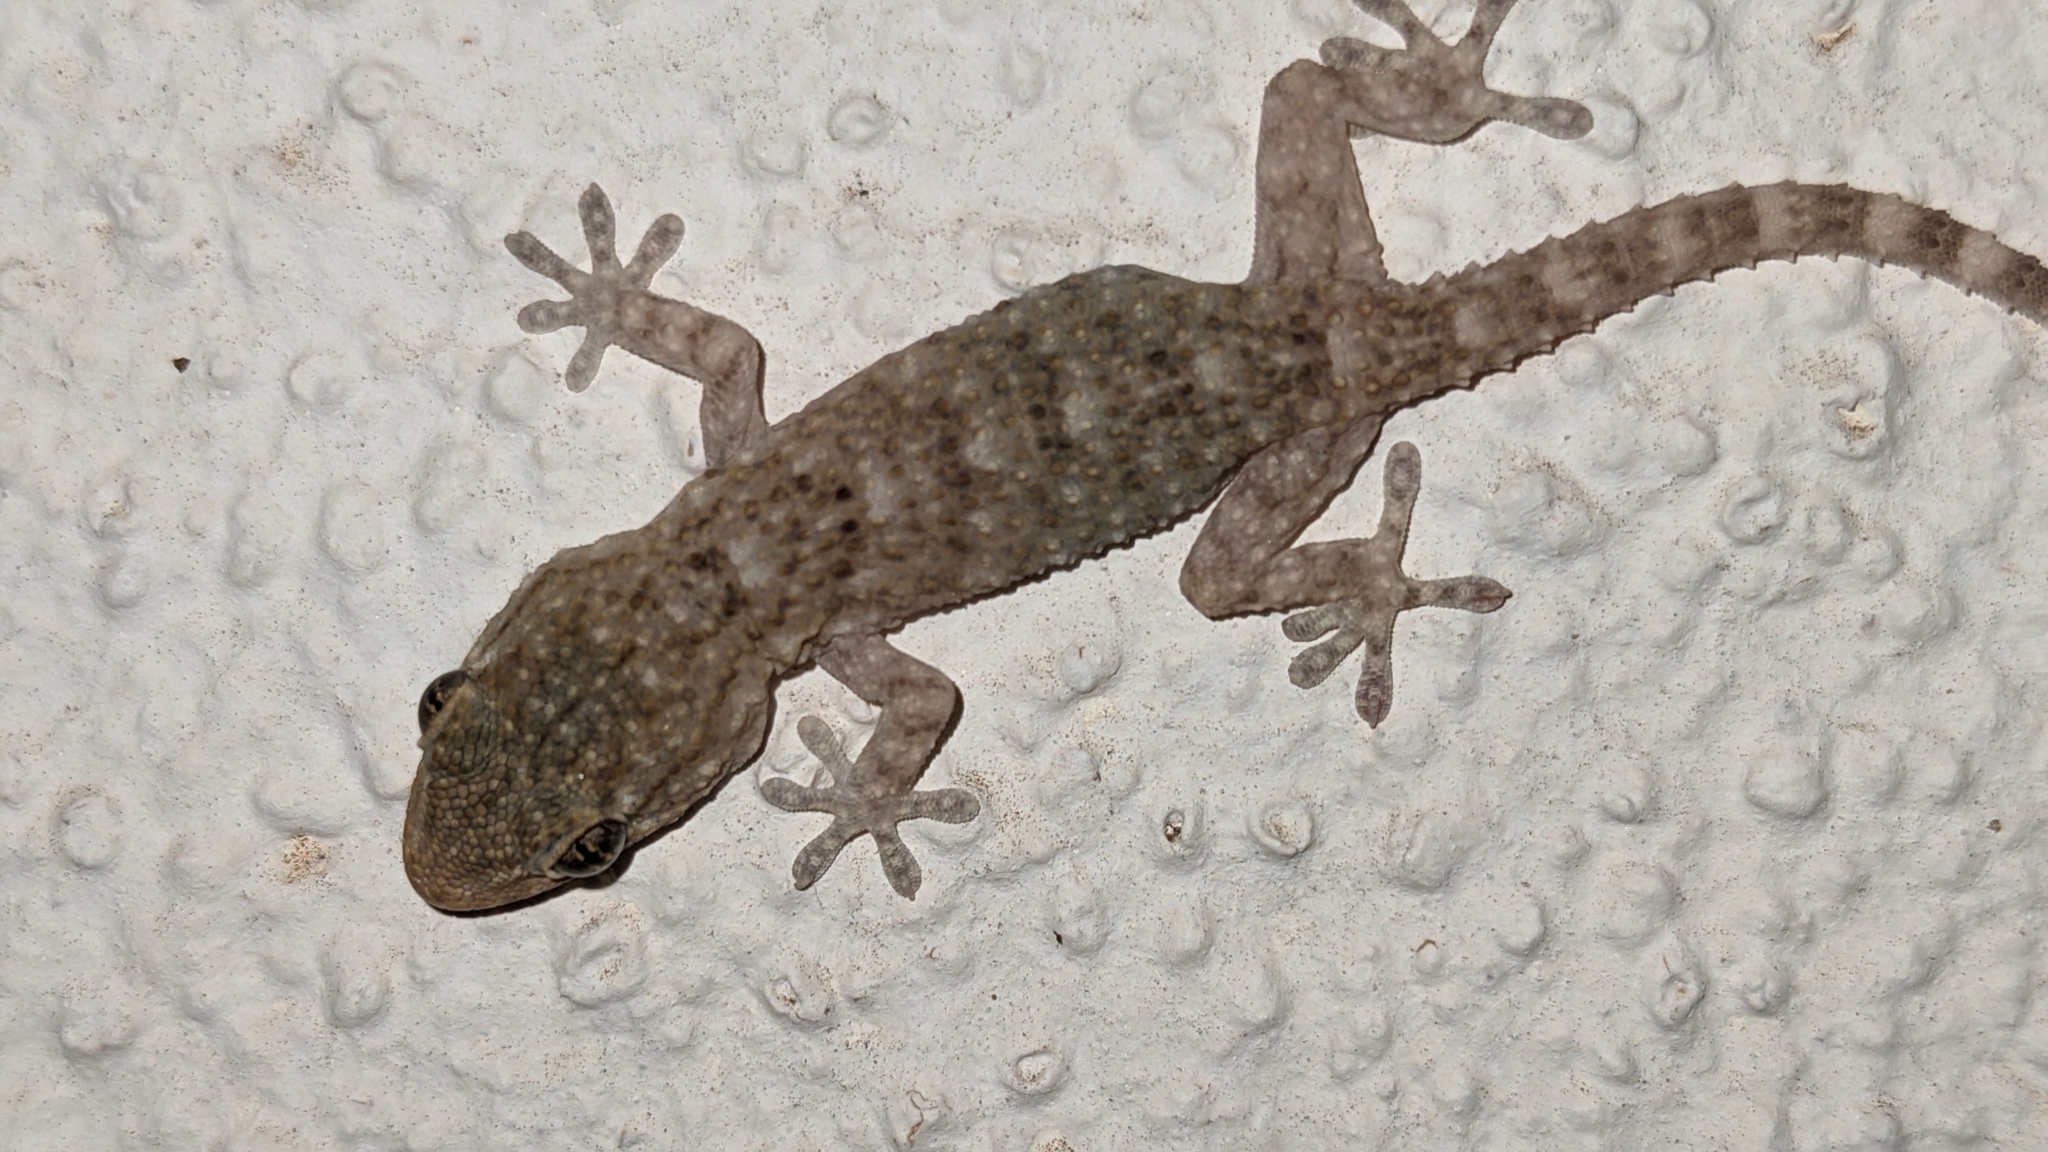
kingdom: Animalia
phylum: Chordata
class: Squamata
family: Phyllodactylidae
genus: Tarentola
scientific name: Tarentola mauritanica
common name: Moorish gecko
